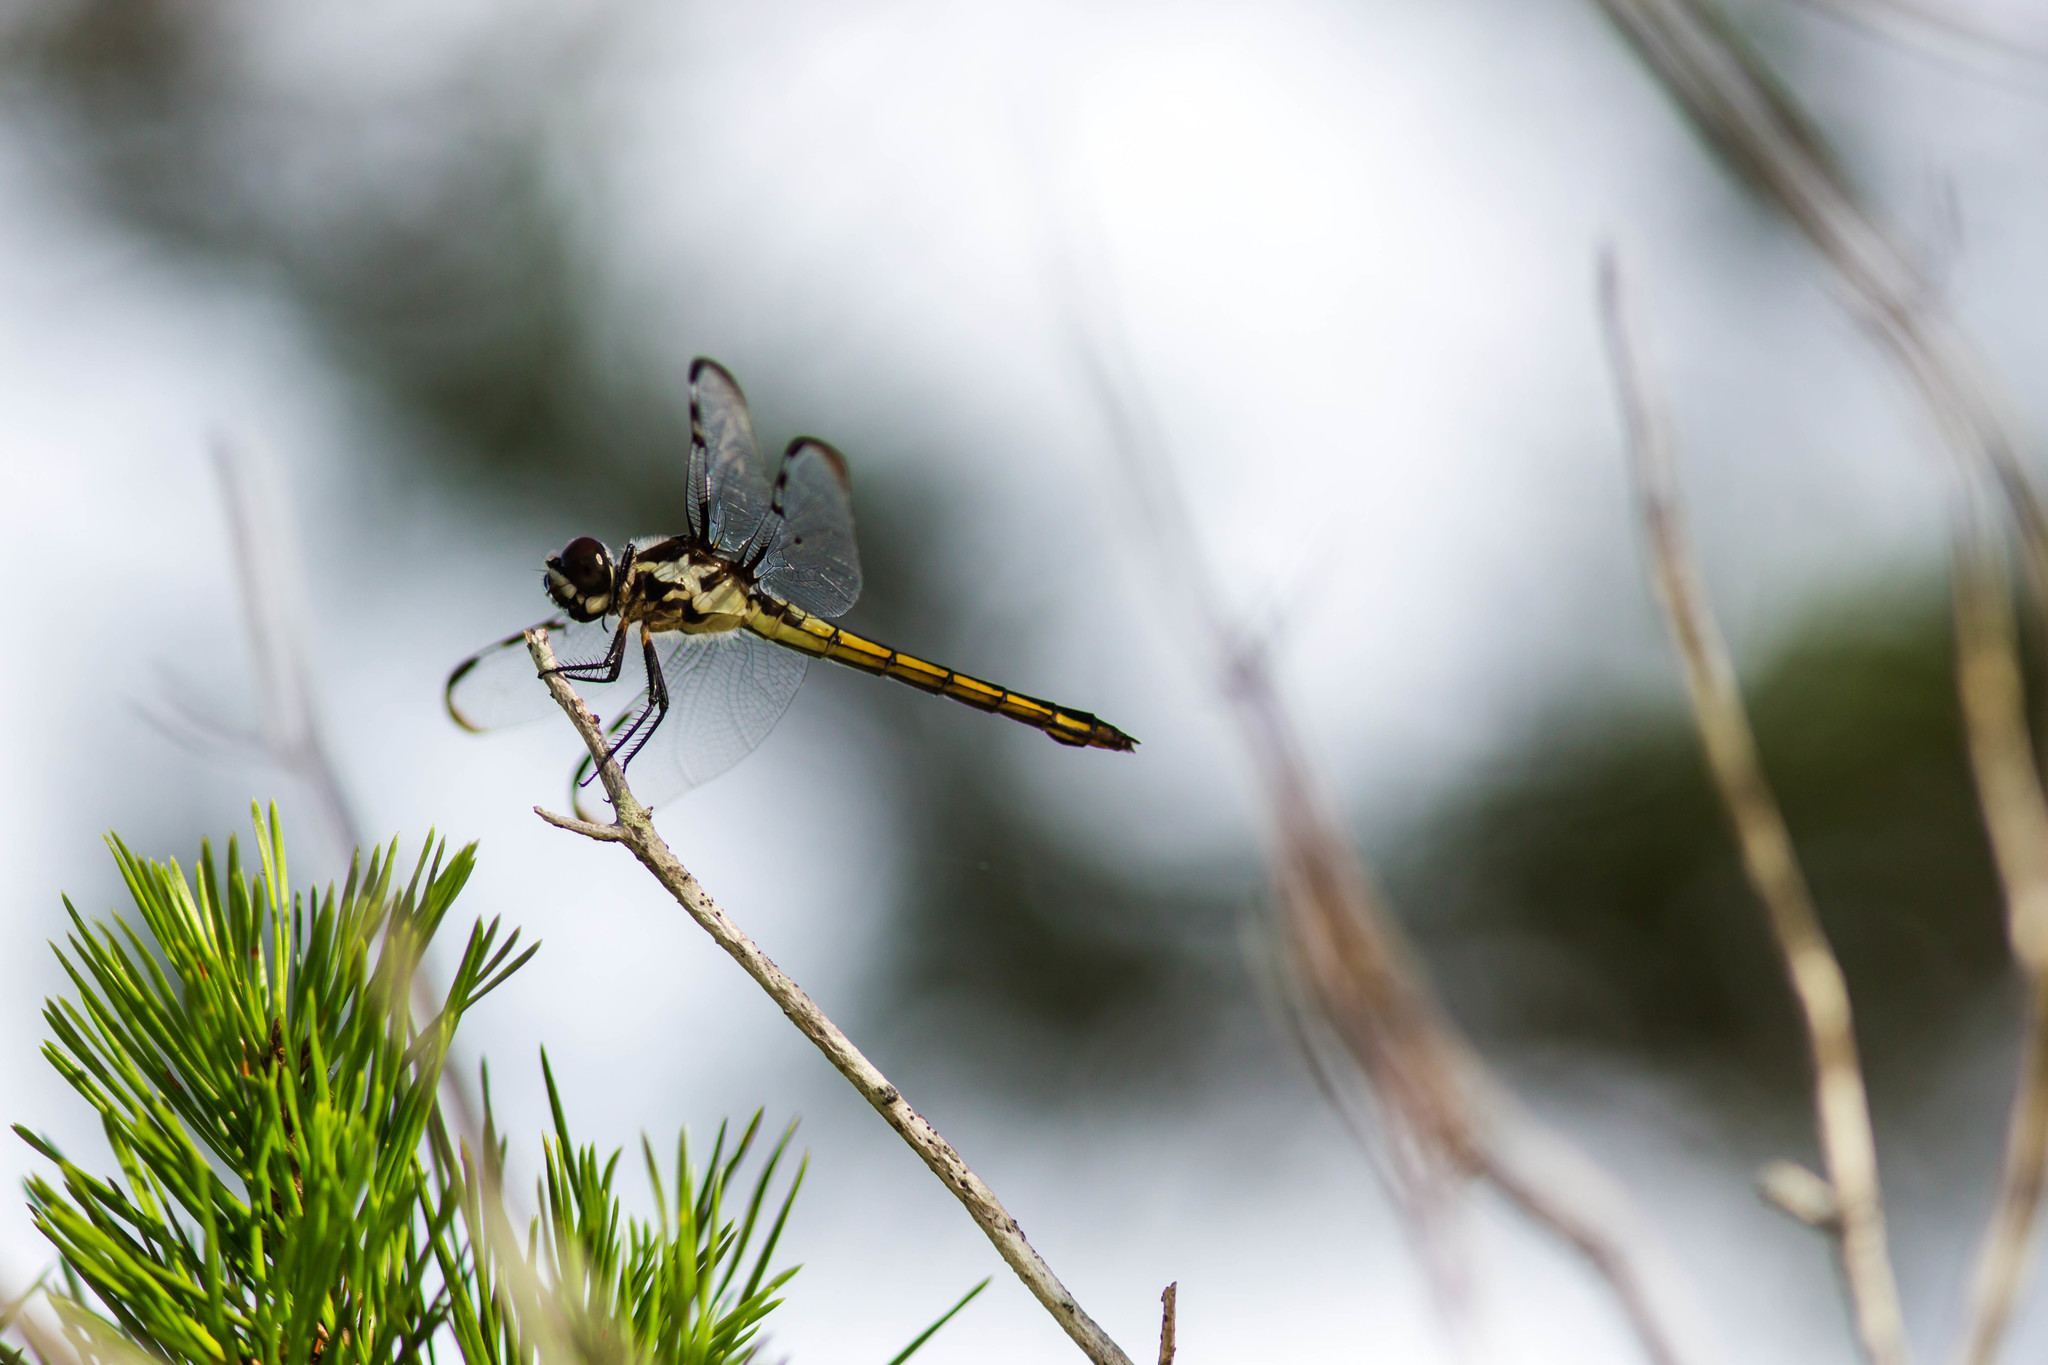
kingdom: Animalia
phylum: Arthropoda
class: Insecta
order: Odonata
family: Libellulidae
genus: Libellula
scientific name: Libellula axilena
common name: Bar-winged skimmer
